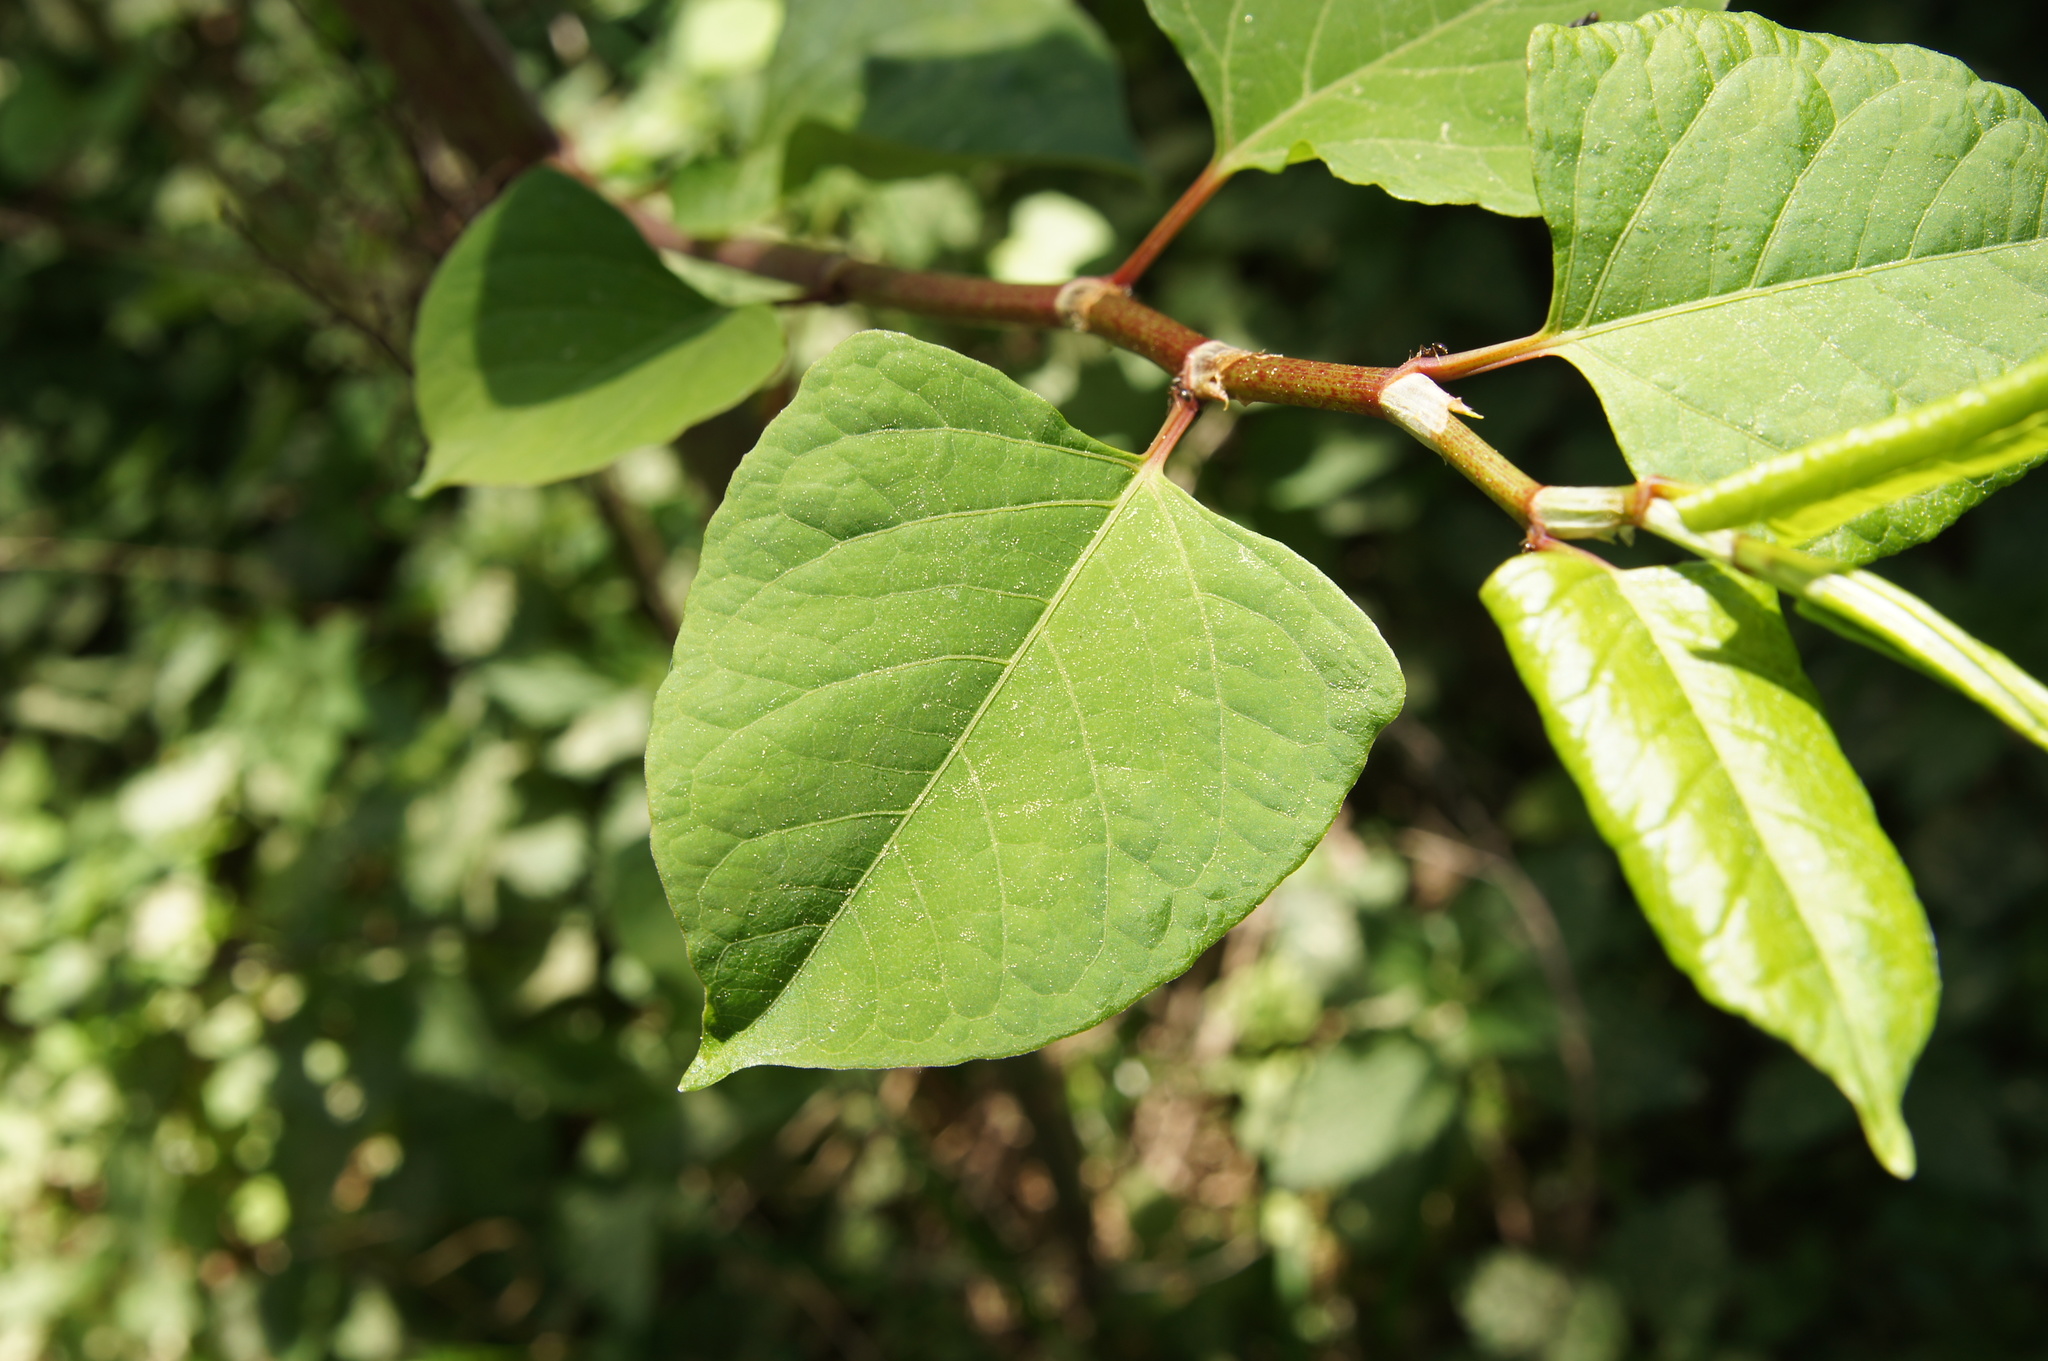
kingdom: Plantae
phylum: Tracheophyta
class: Magnoliopsida
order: Caryophyllales
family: Polygonaceae
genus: Reynoutria
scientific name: Reynoutria japonica
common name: Japanese knotweed
